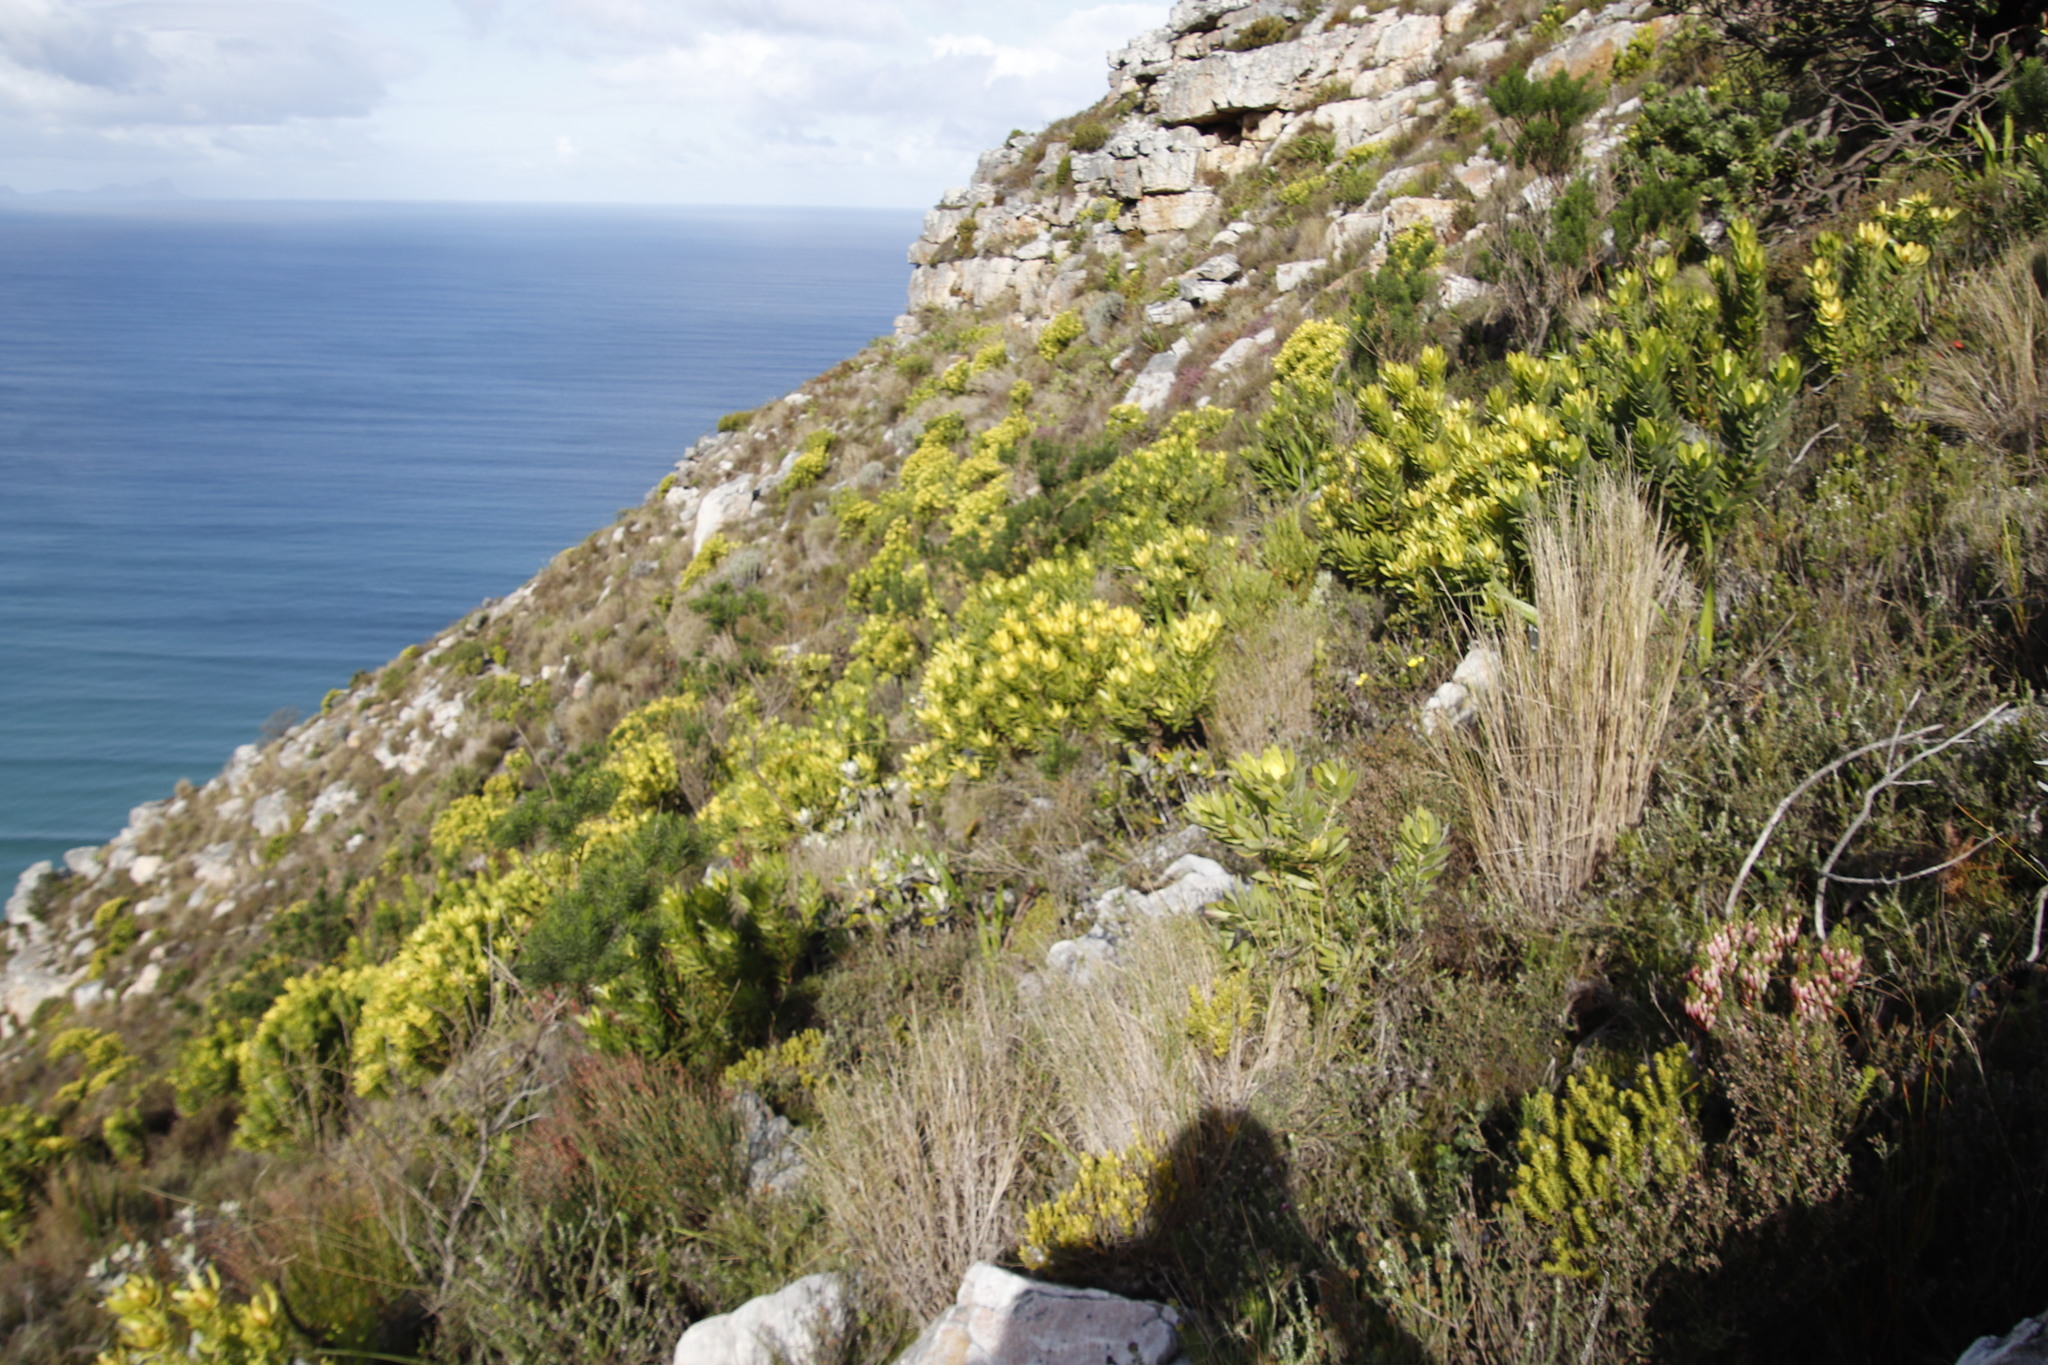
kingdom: Plantae
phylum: Tracheophyta
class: Magnoliopsida
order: Proteales
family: Proteaceae
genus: Leucadendron
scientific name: Leucadendron laureolum
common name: Golden sunshinebush
